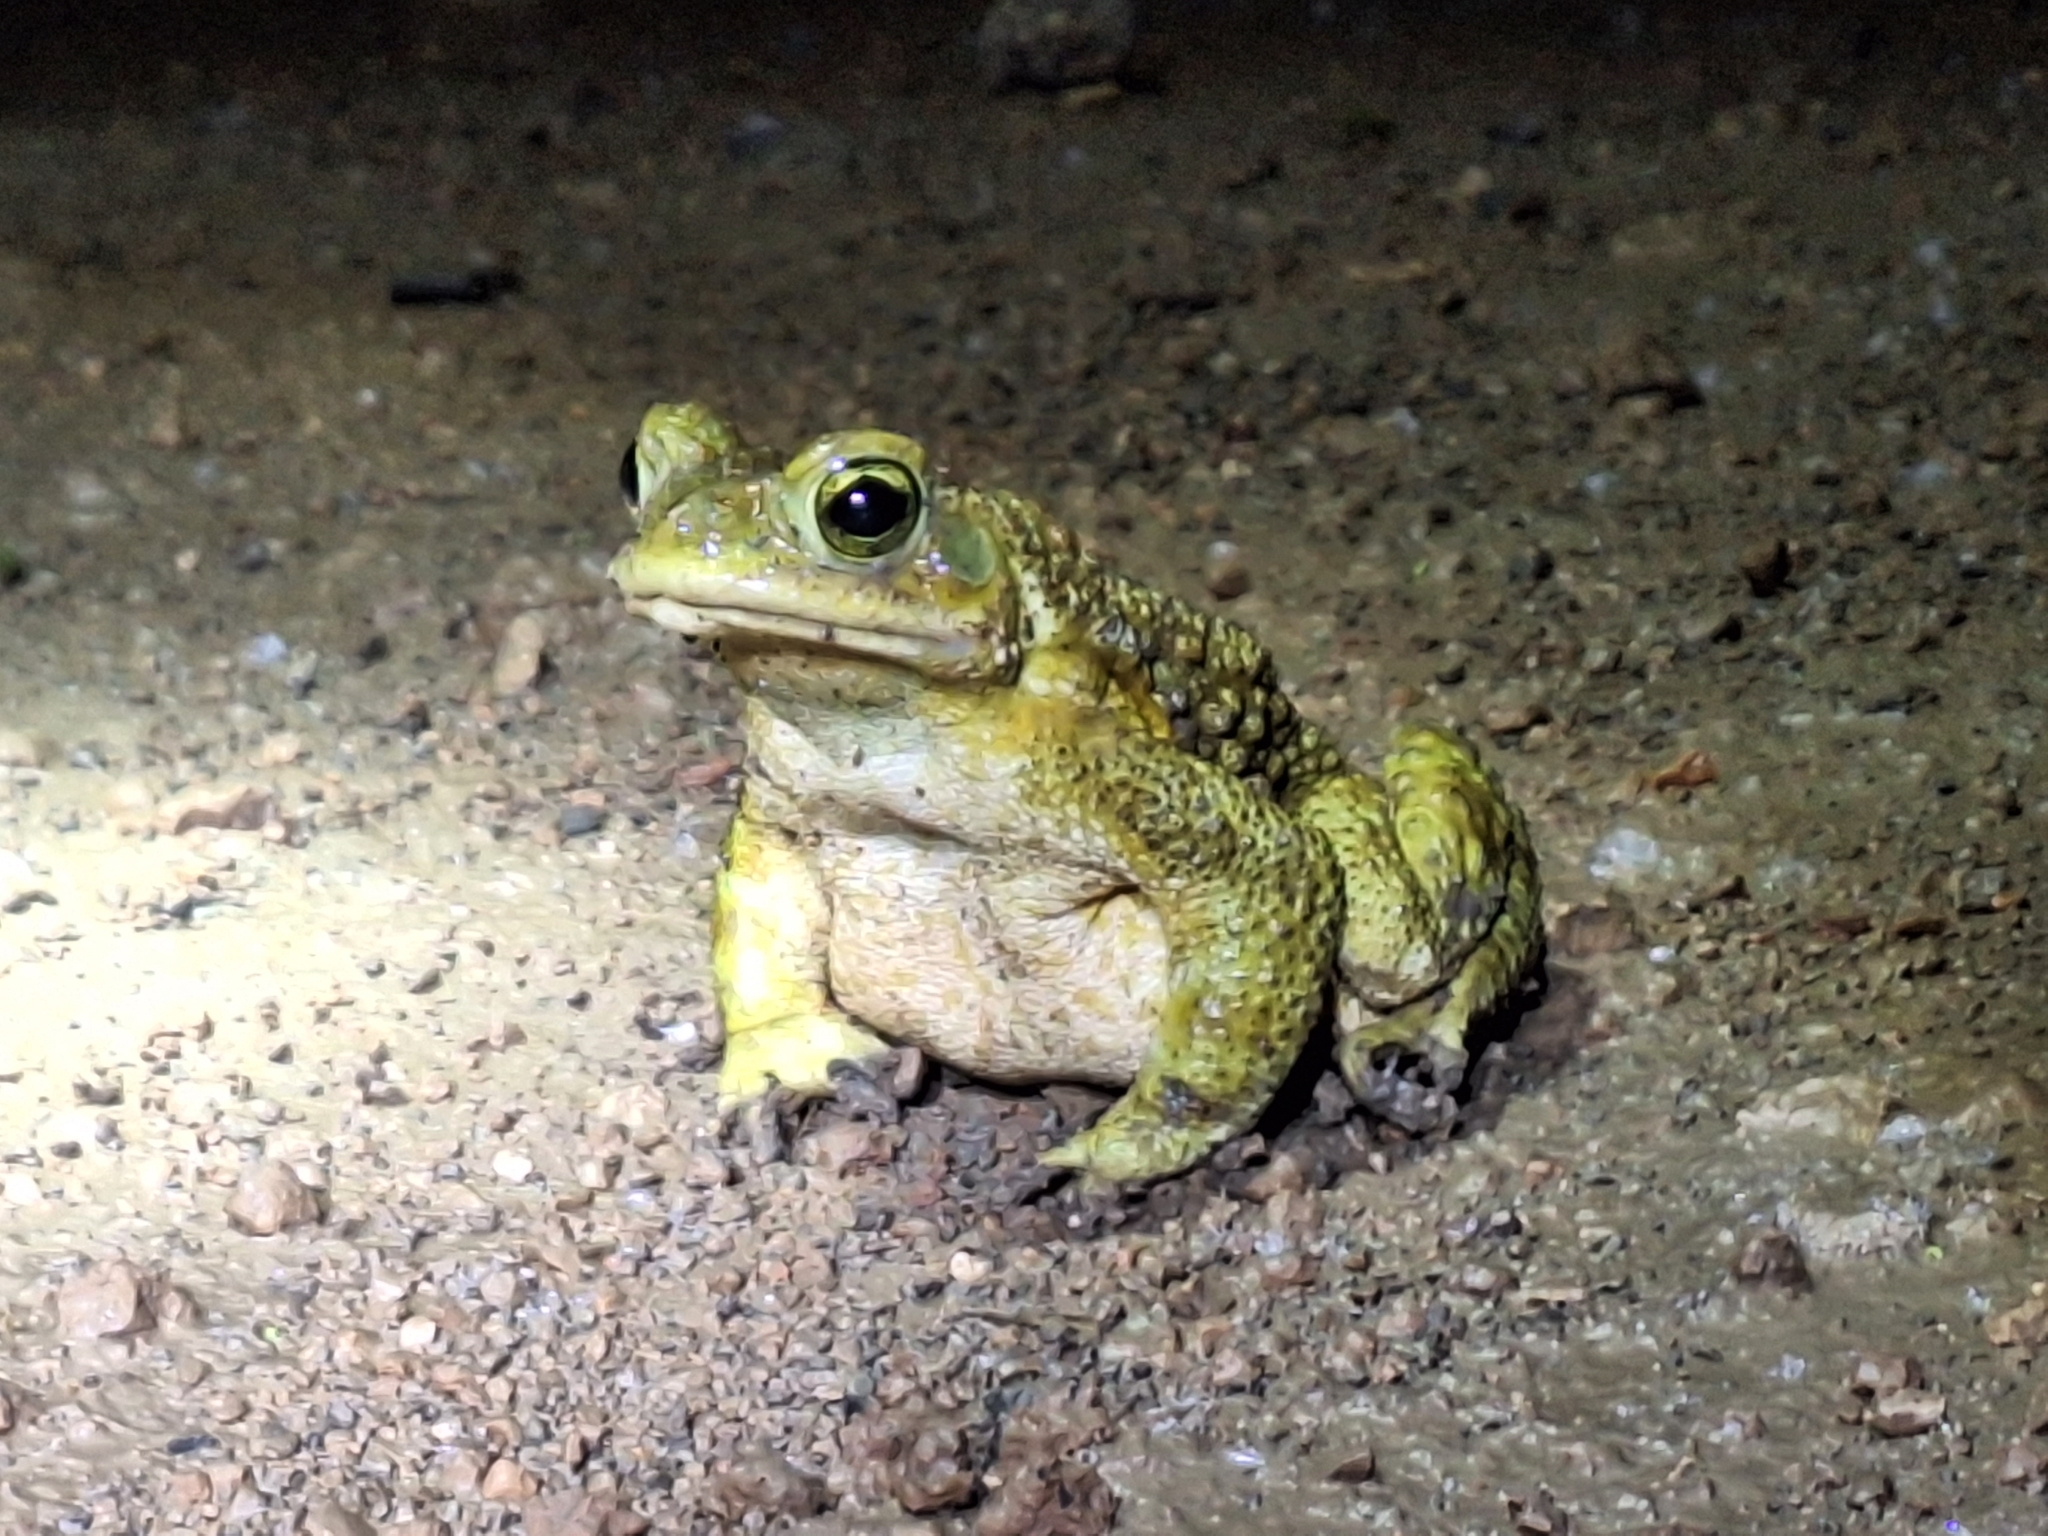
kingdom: Animalia
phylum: Chordata
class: Amphibia
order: Anura
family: Bufonidae
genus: Rhinella
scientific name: Rhinella arenarum
